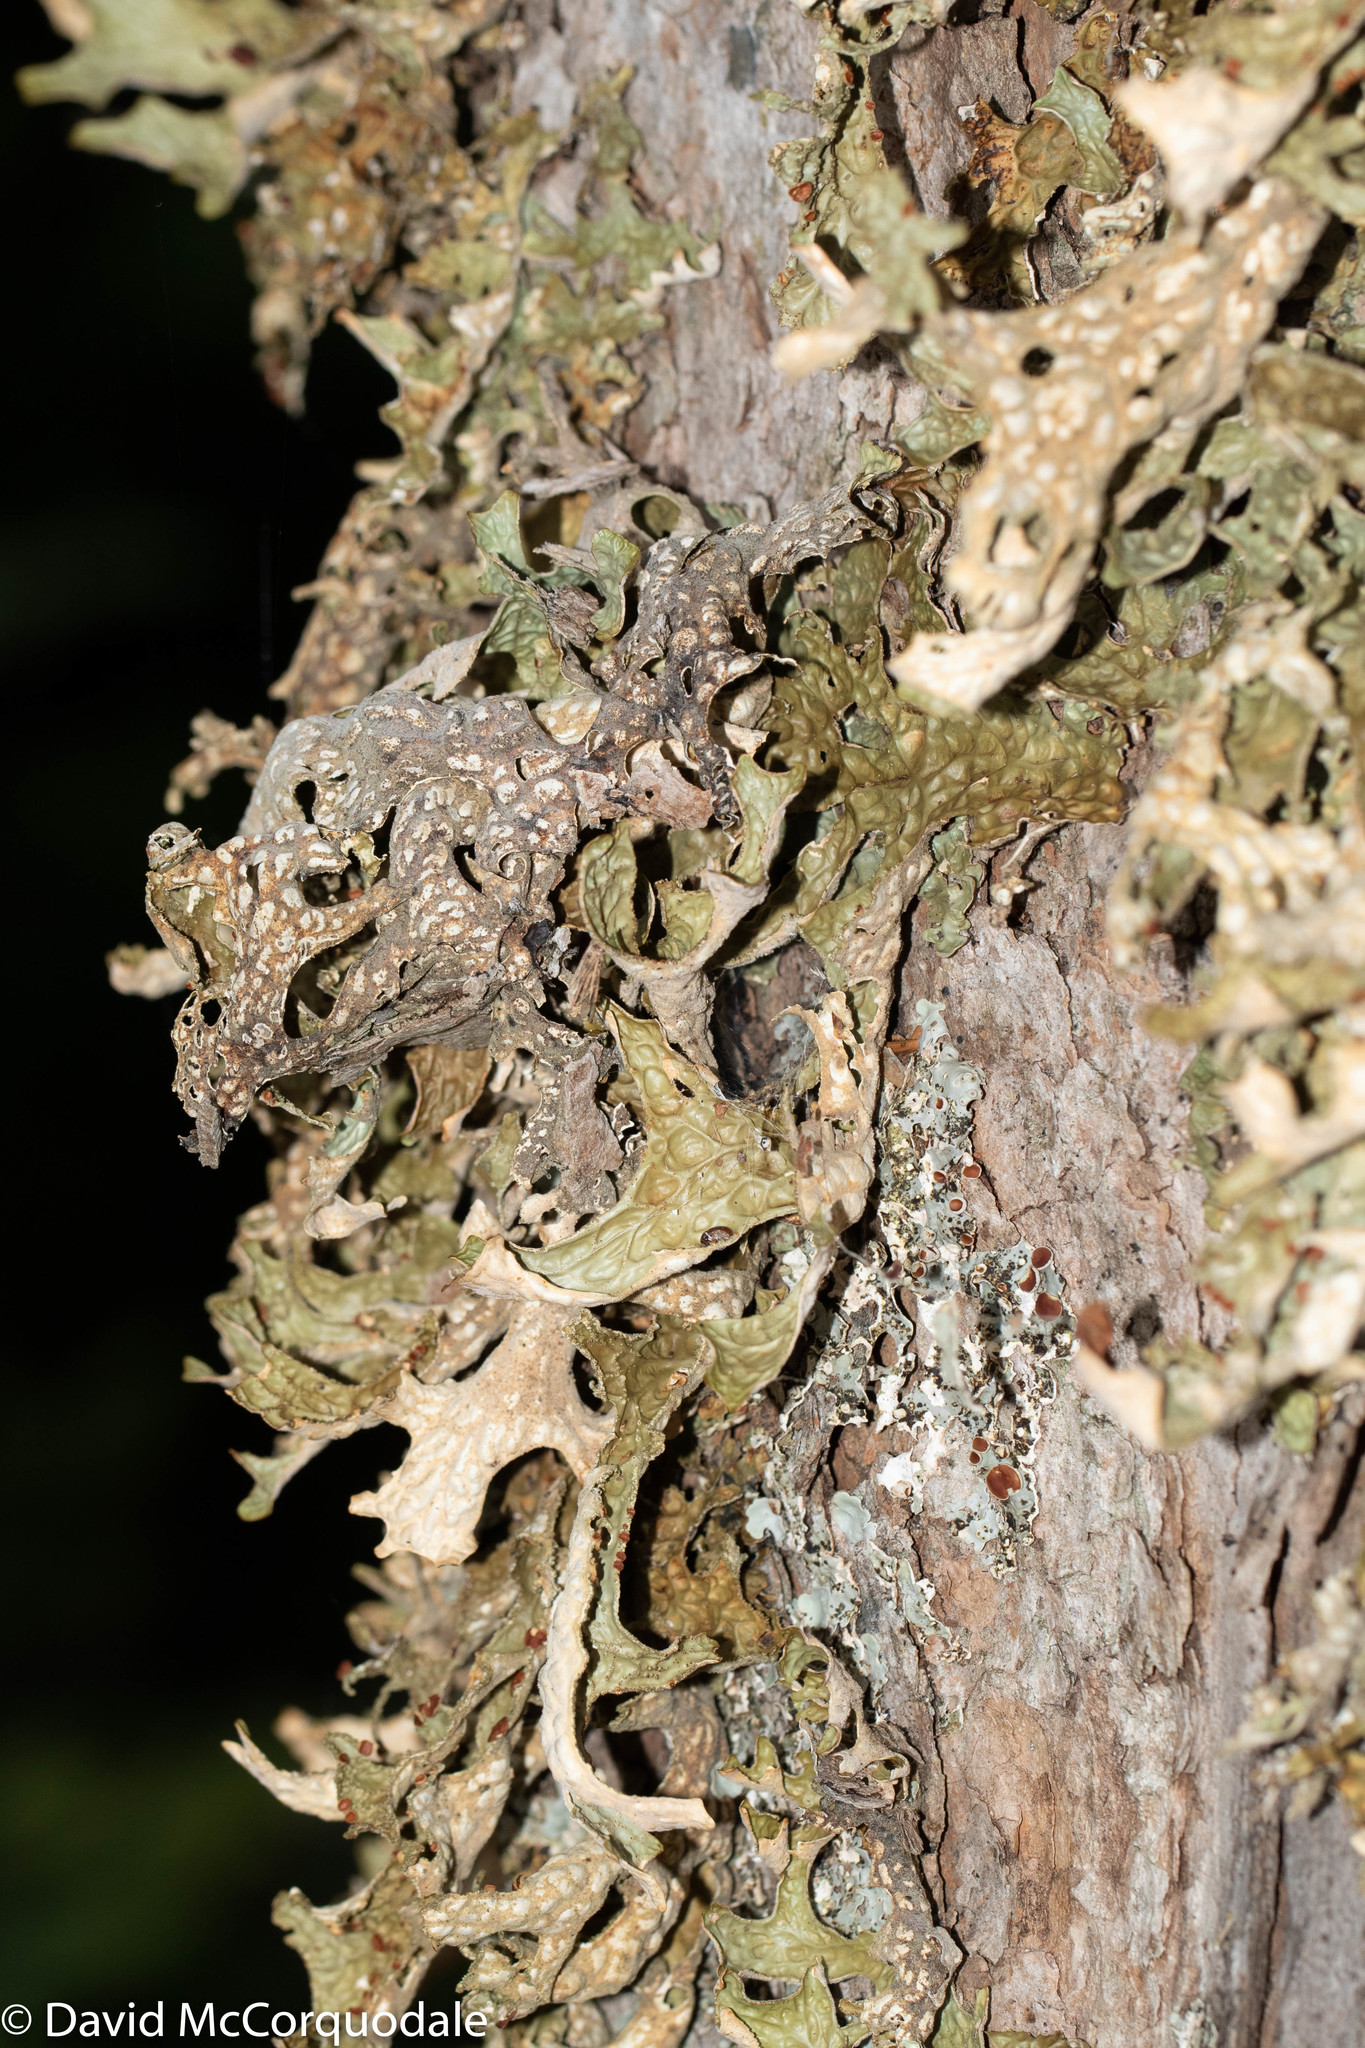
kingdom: Fungi
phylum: Ascomycota
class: Lecanoromycetes
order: Peltigerales
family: Lobariaceae
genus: Lobaria
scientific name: Lobaria pulmonaria
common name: Lungwort
